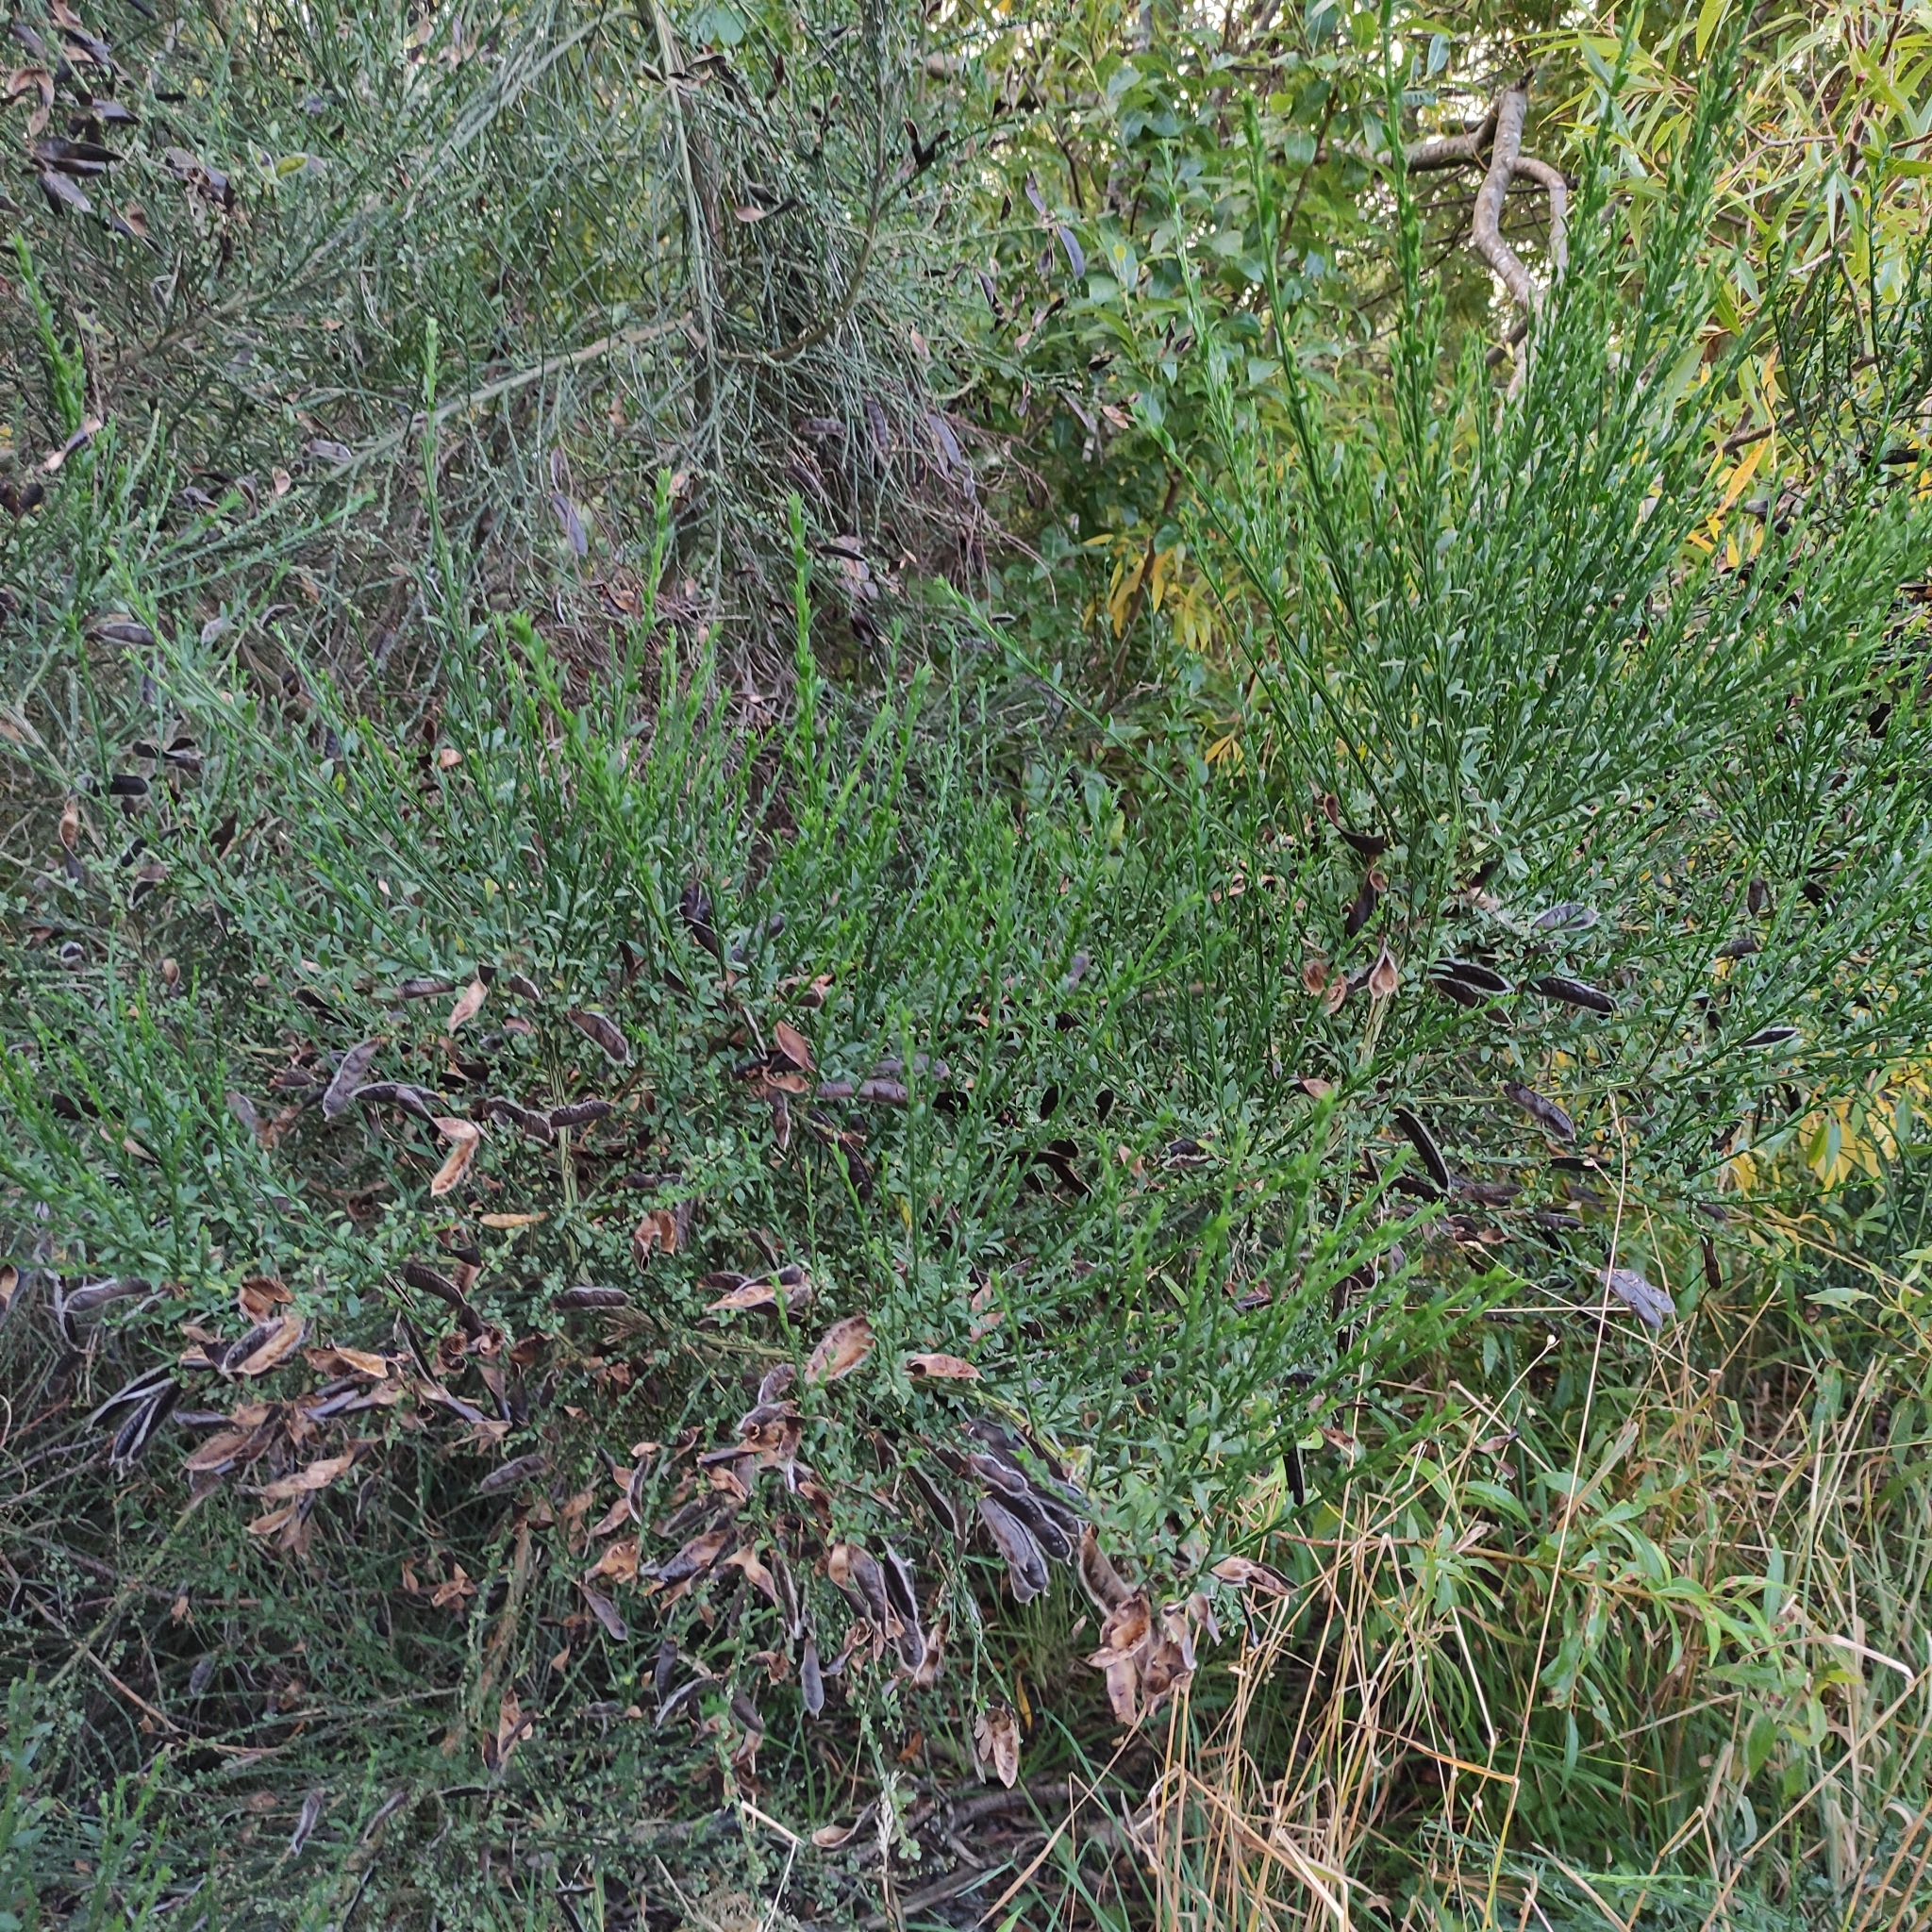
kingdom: Plantae
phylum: Tracheophyta
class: Magnoliopsida
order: Fabales
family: Fabaceae
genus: Cytisus
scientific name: Cytisus scoparius
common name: Scotch broom
